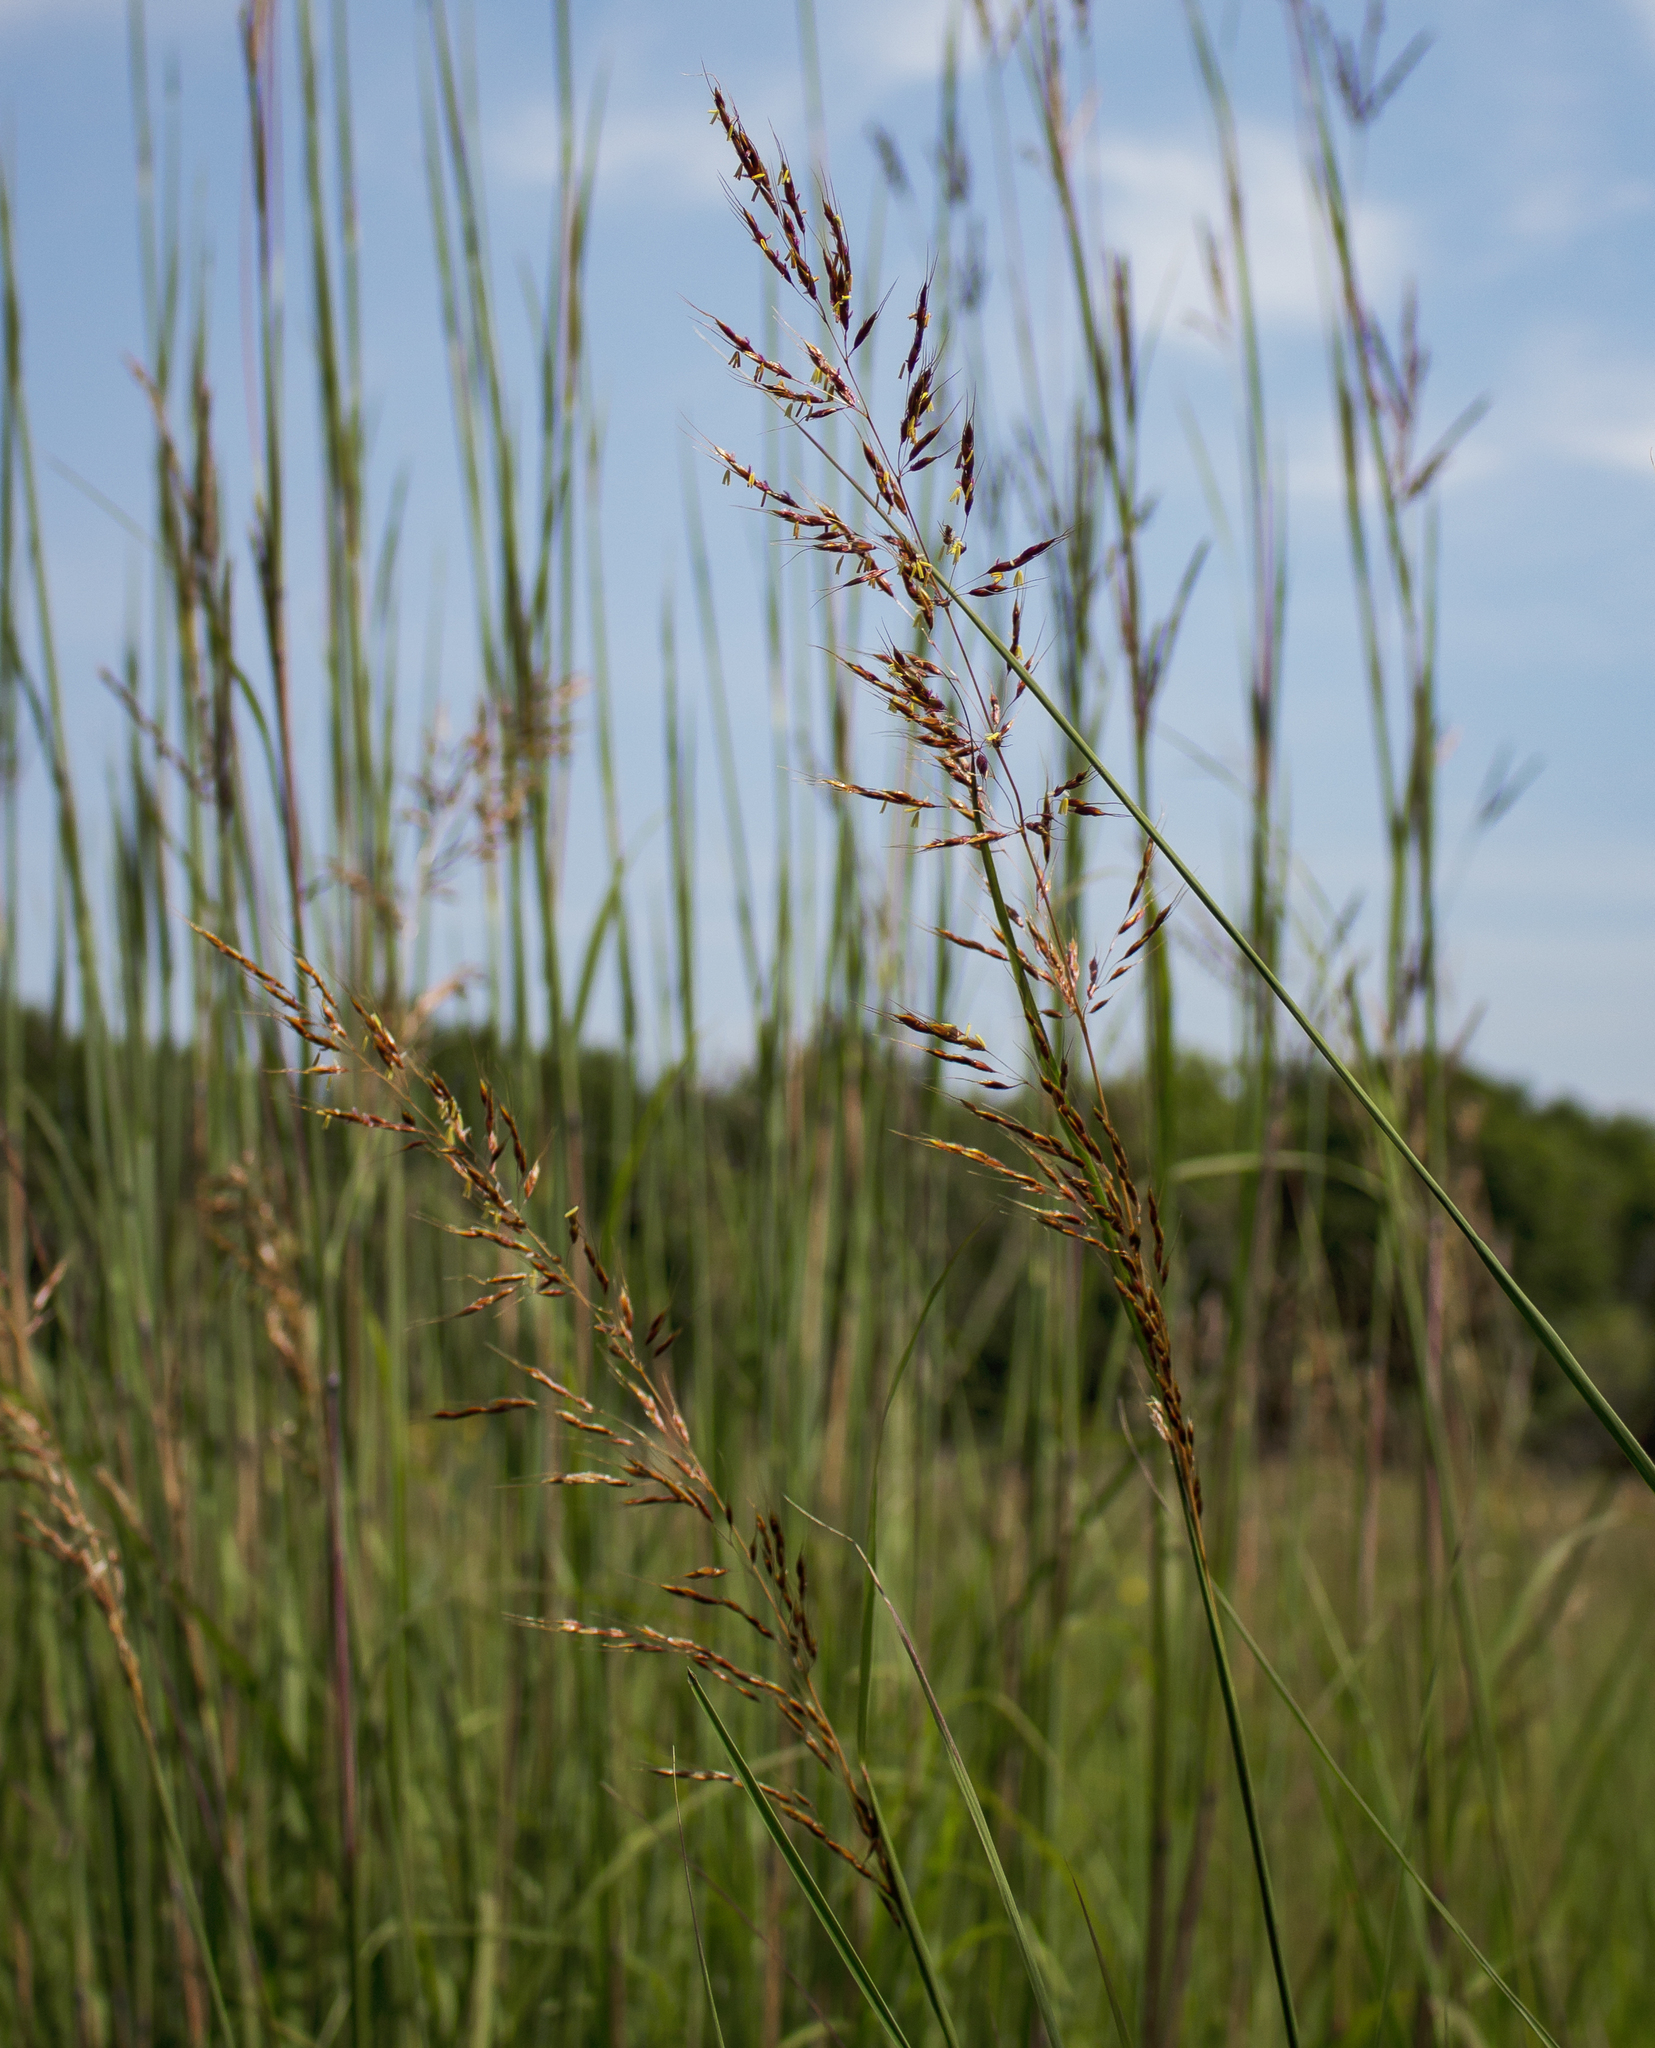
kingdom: Plantae
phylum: Tracheophyta
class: Liliopsida
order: Poales
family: Poaceae
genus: Sorghastrum
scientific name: Sorghastrum nutans
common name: Indian grass
